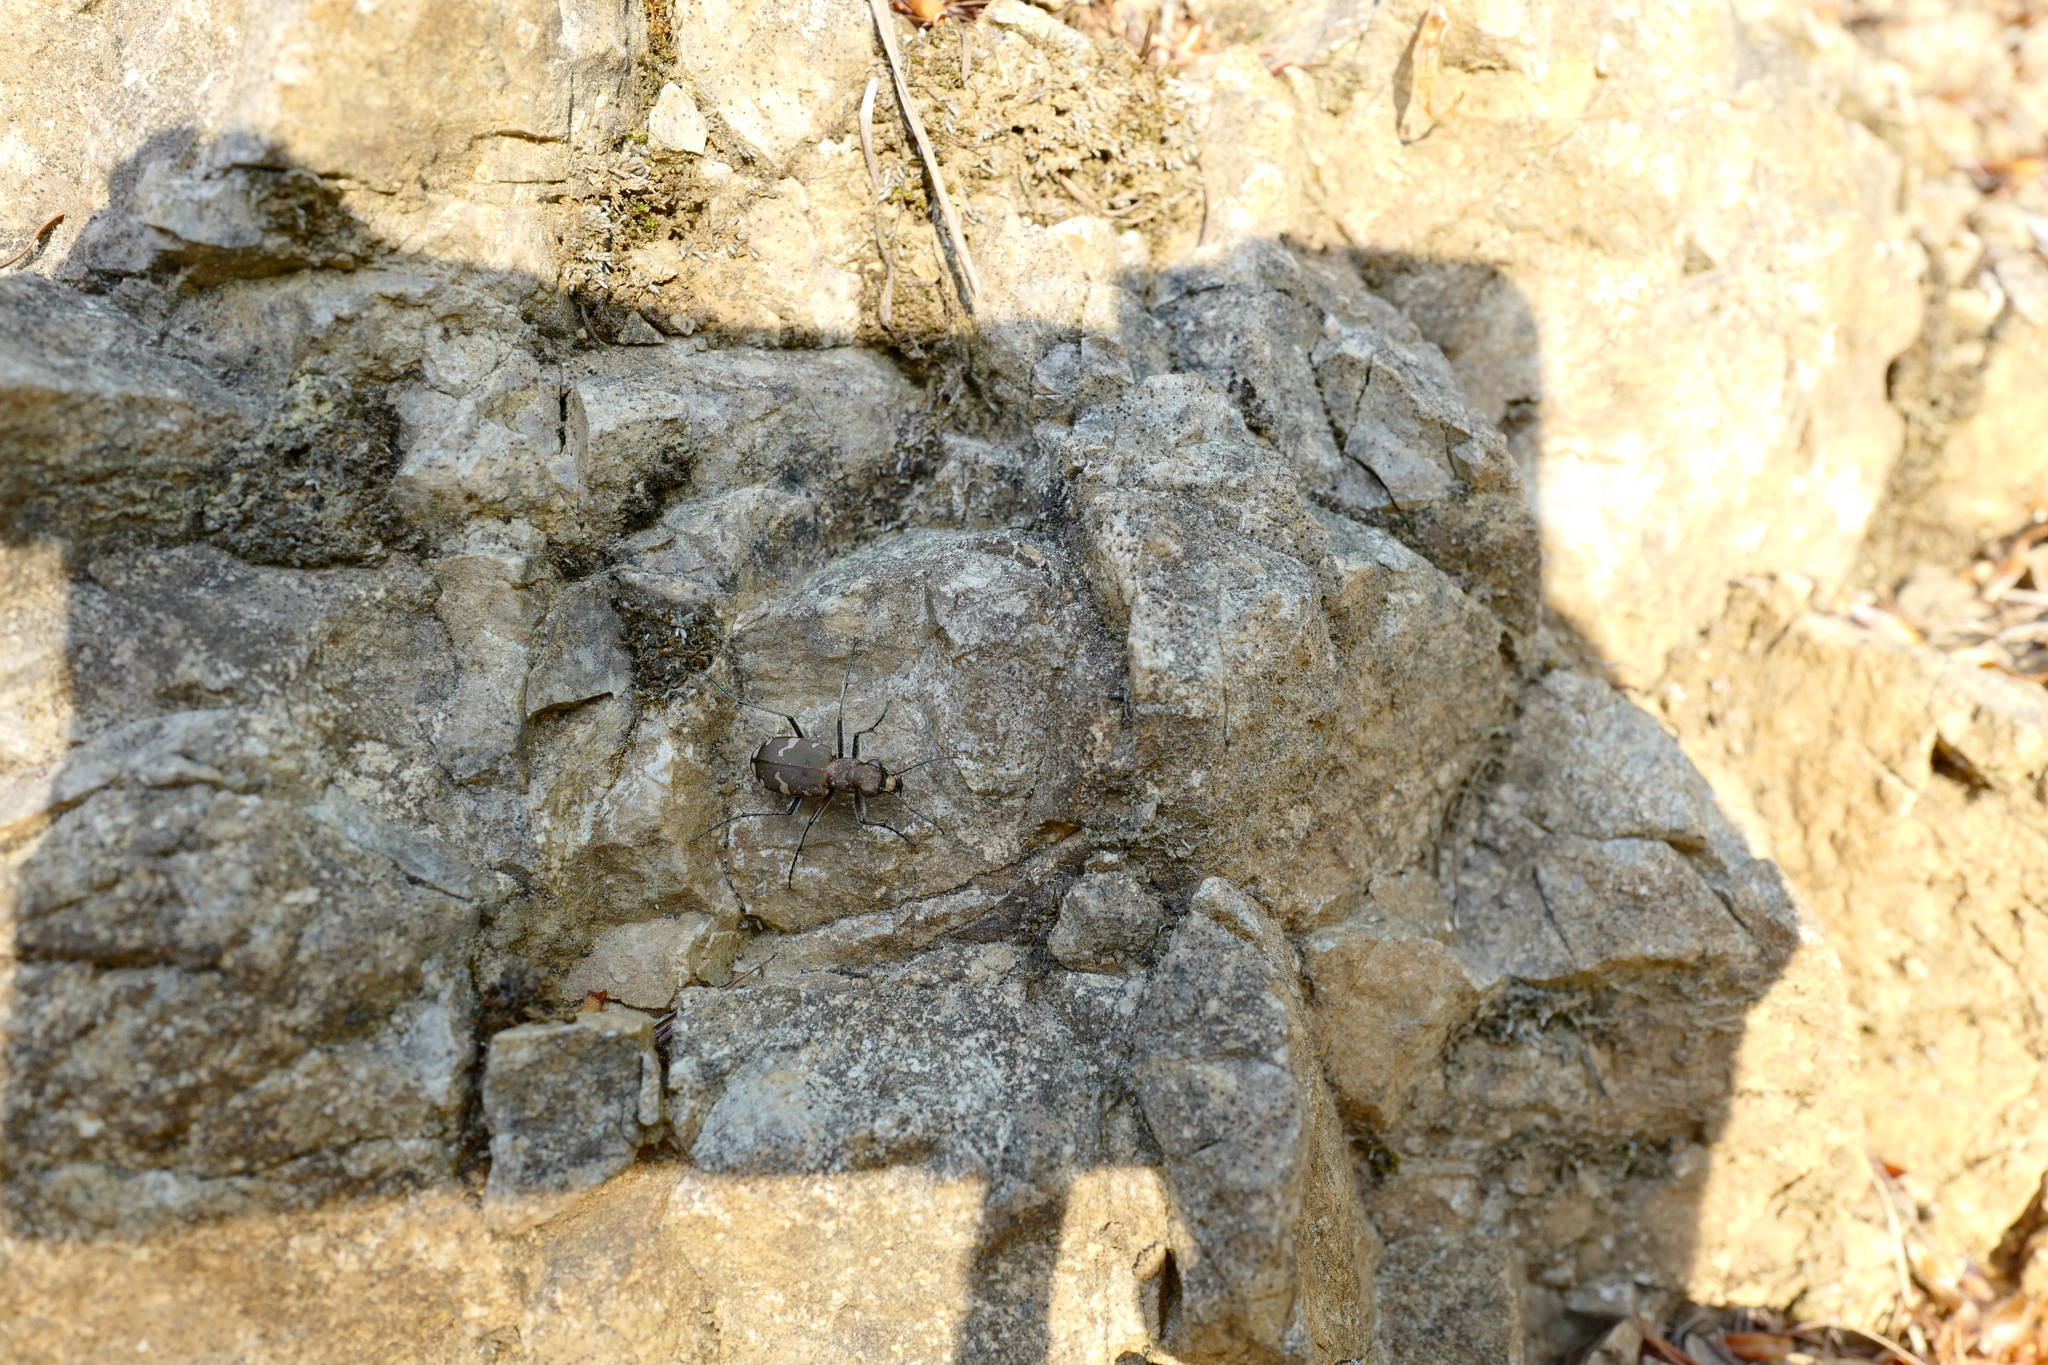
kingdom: Animalia
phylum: Arthropoda
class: Insecta
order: Coleoptera
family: Carabidae
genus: Cicindela
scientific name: Cicindela sylvicola
